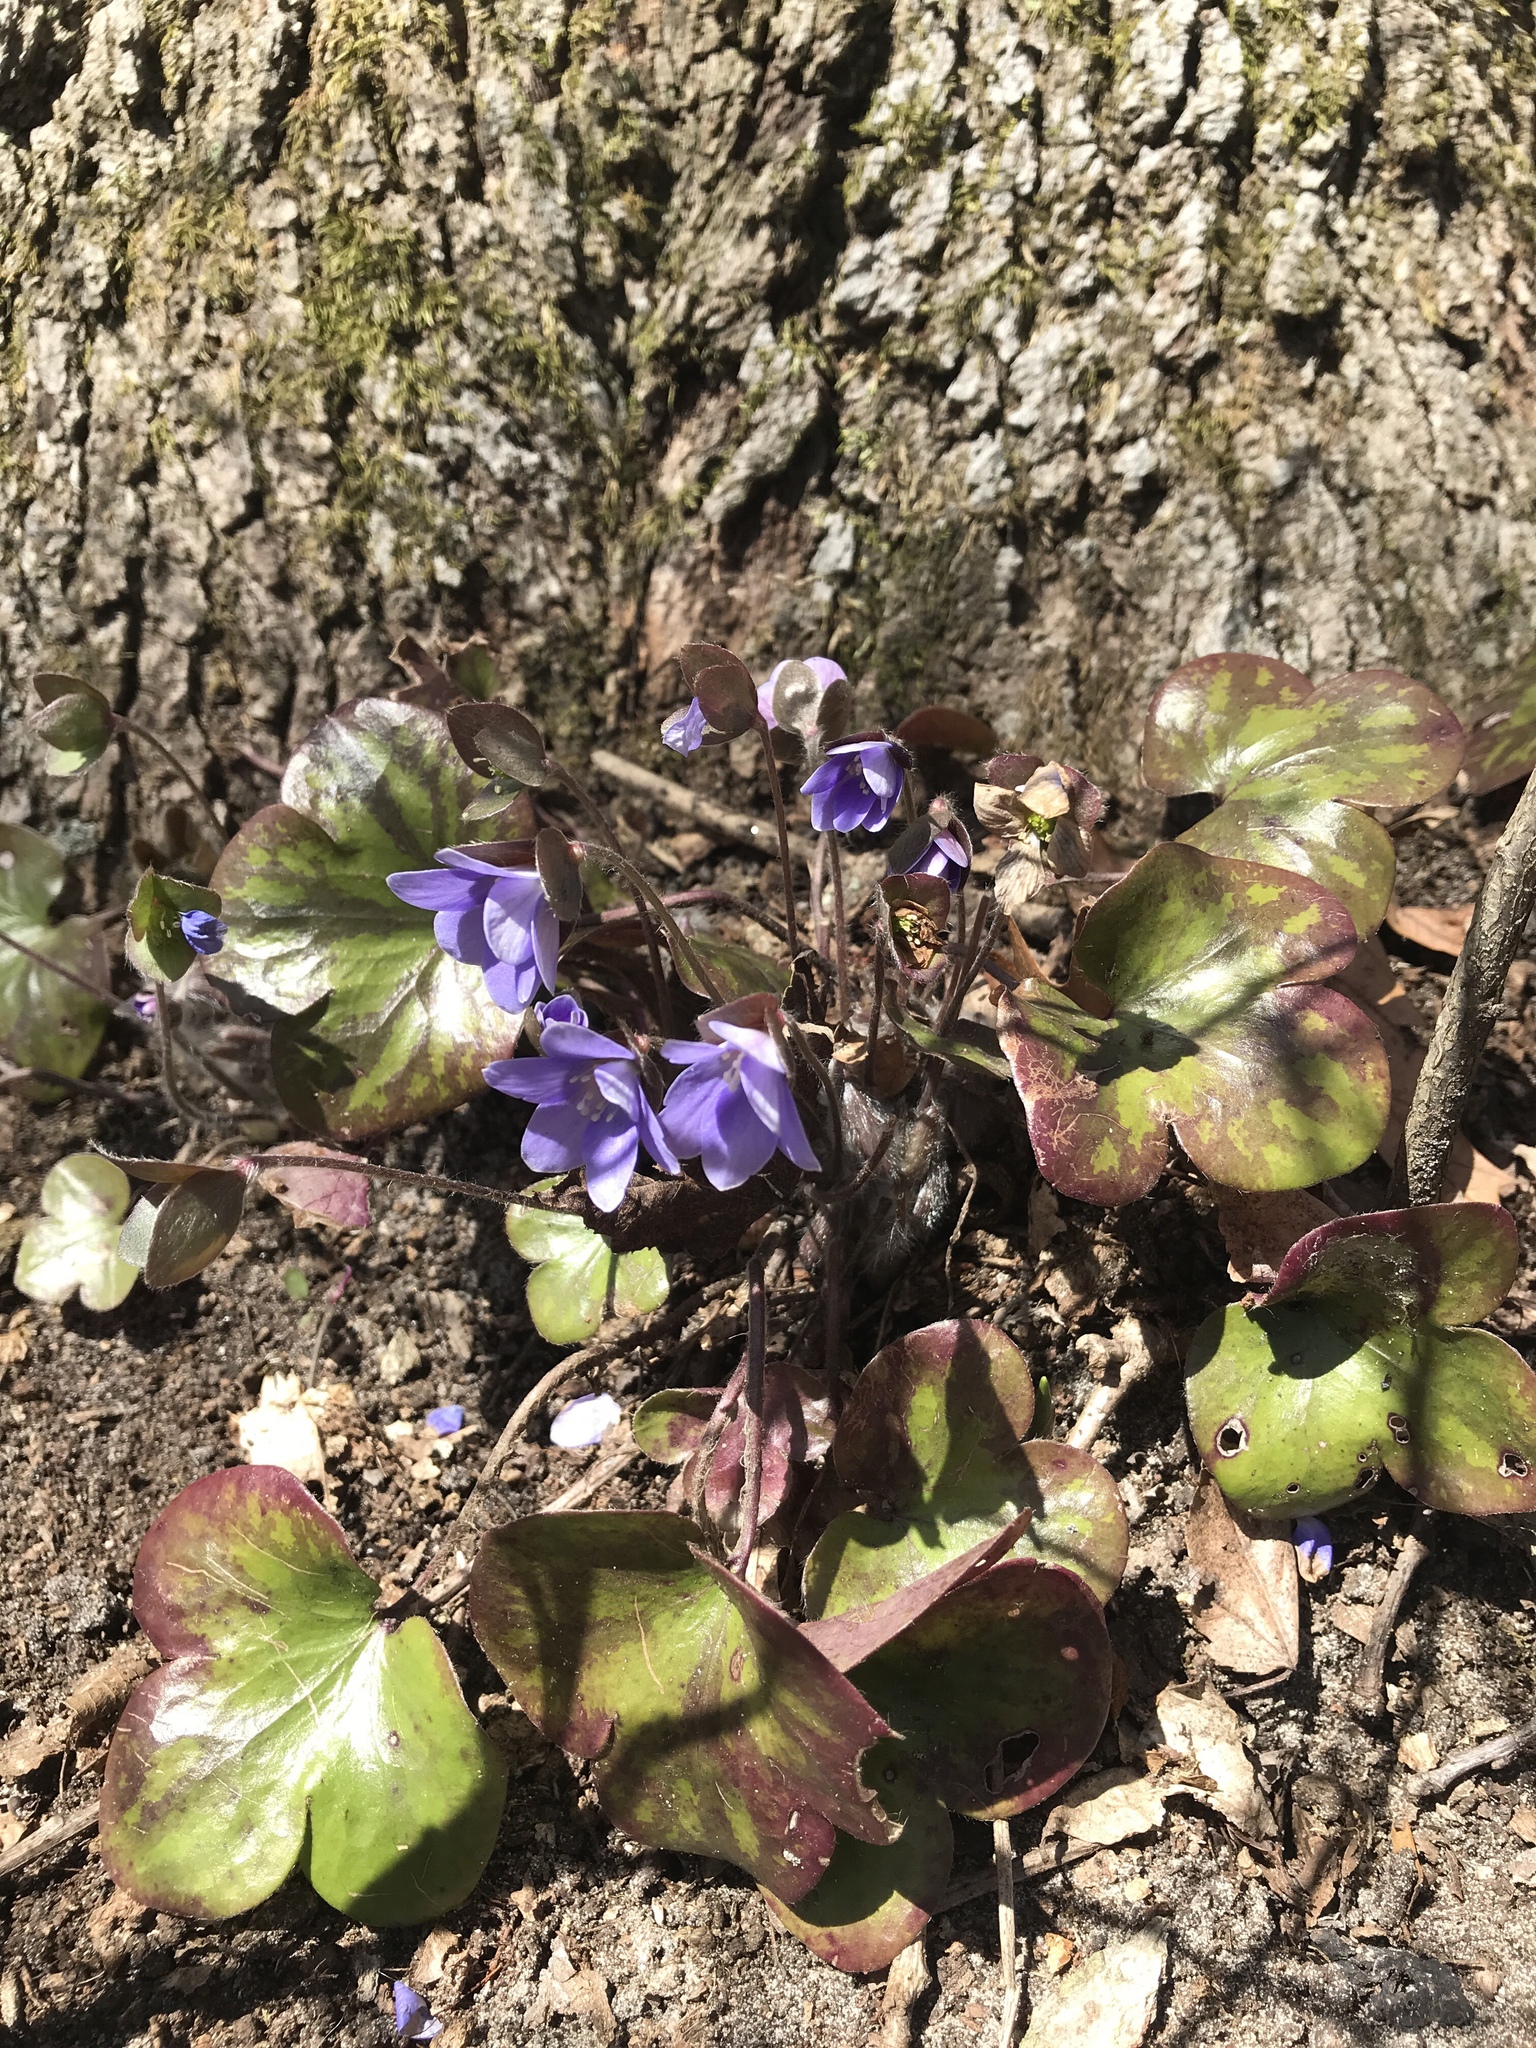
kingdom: Plantae
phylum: Tracheophyta
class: Magnoliopsida
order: Ranunculales
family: Ranunculaceae
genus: Hepatica
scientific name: Hepatica americana
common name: American hepatica
